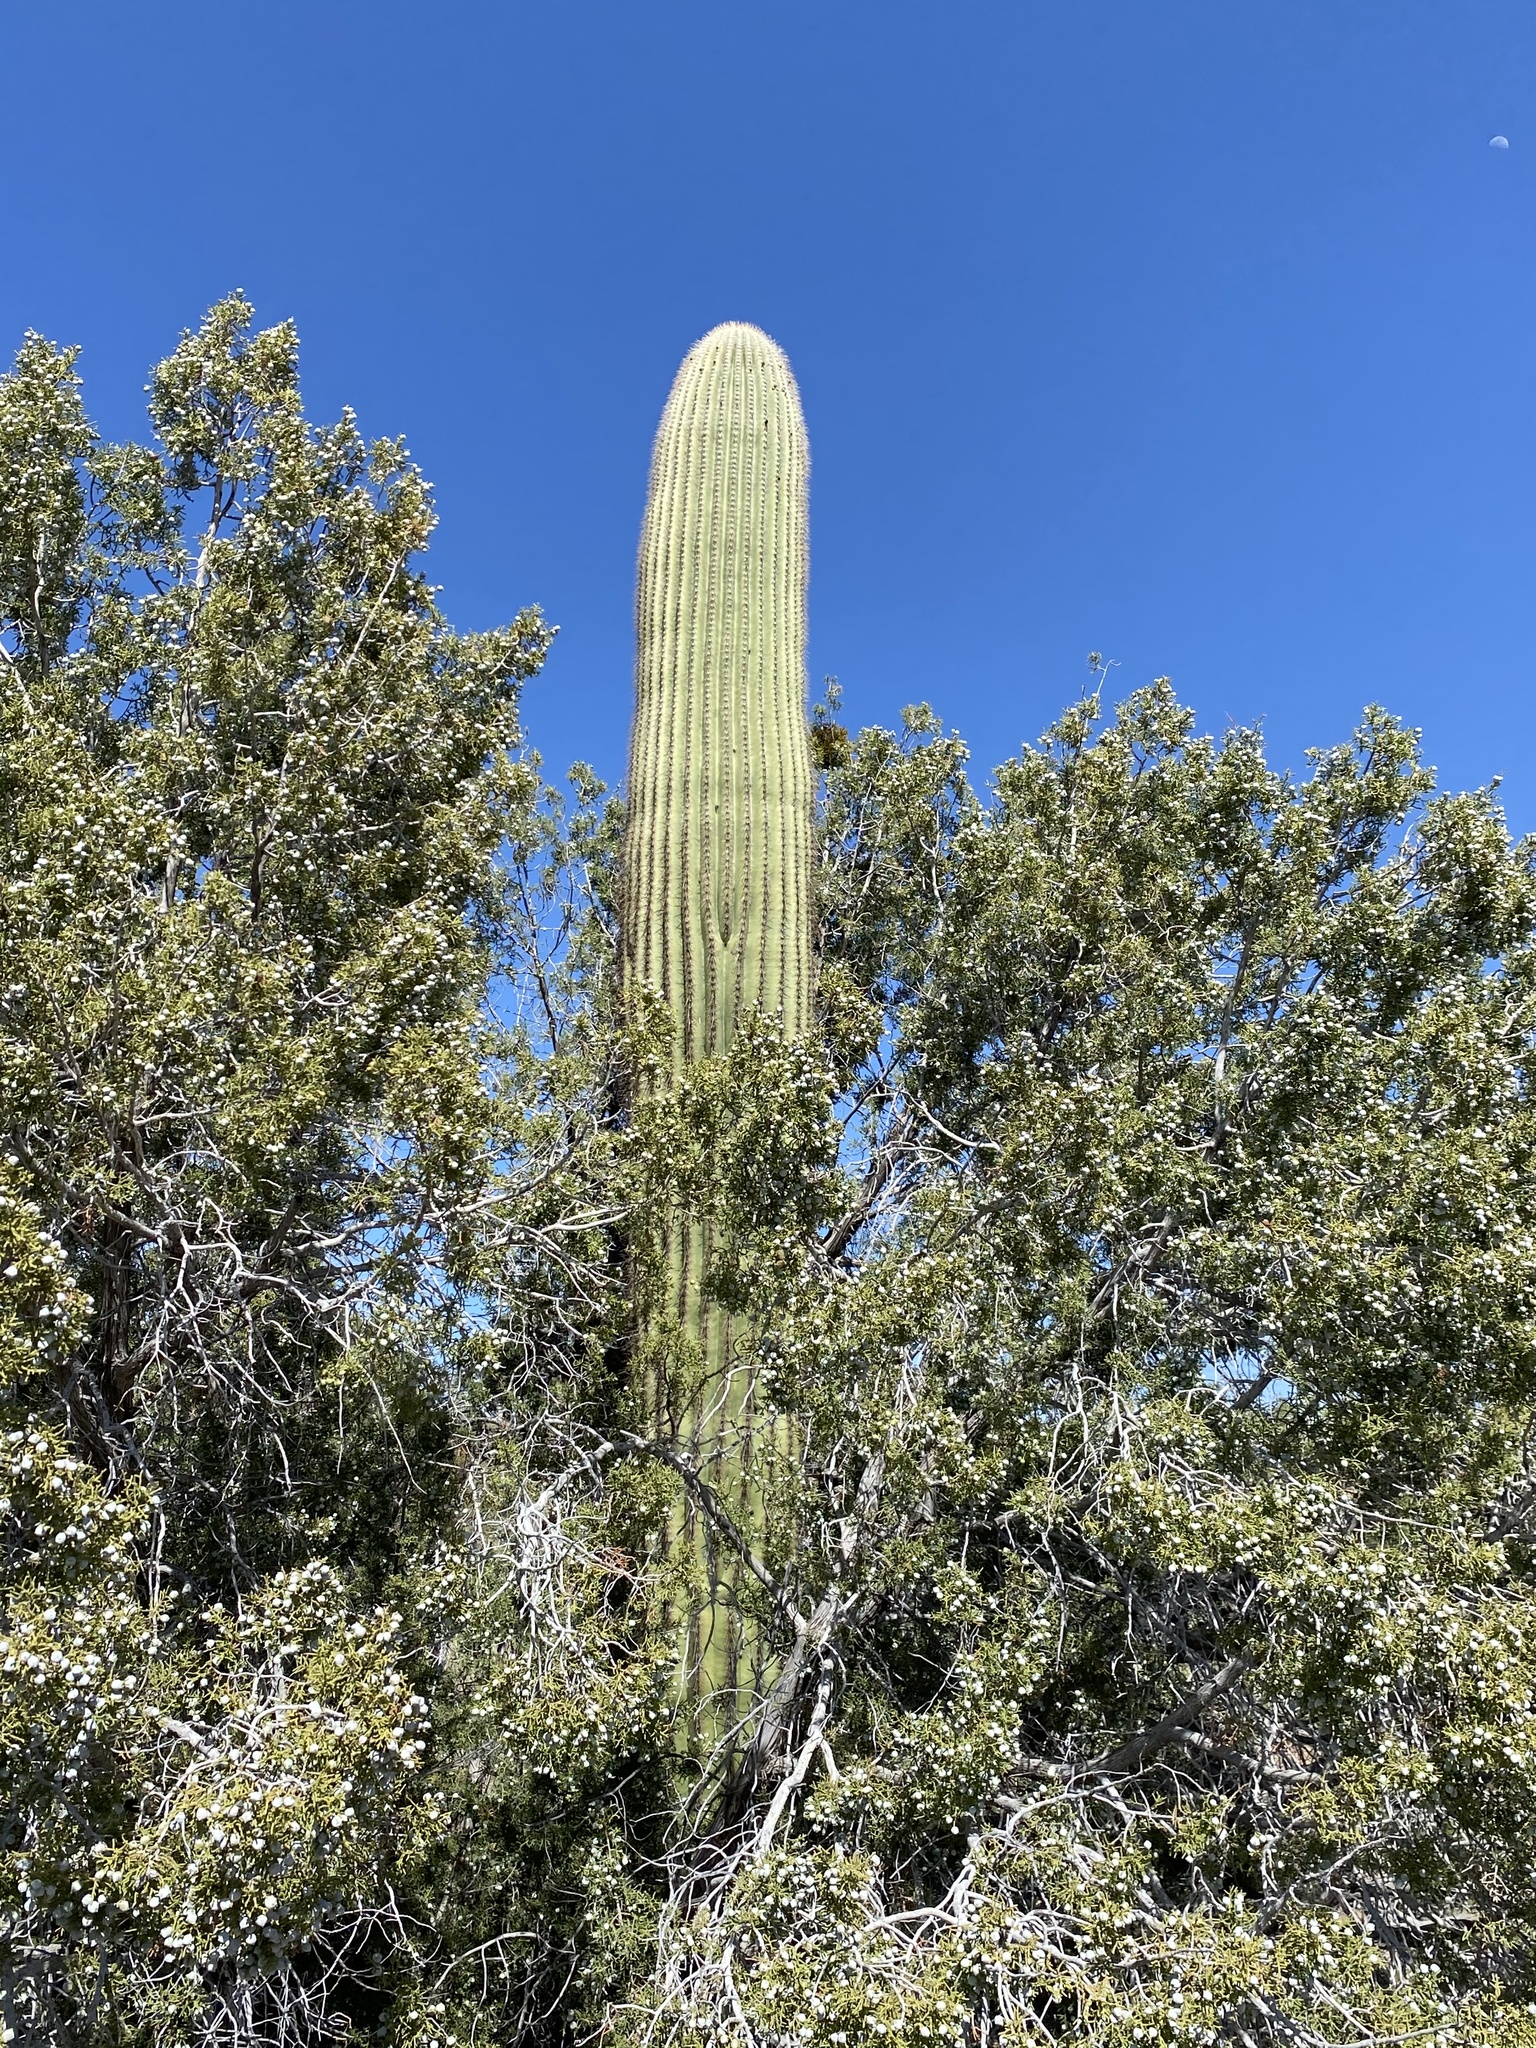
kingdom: Plantae
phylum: Tracheophyta
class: Magnoliopsida
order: Caryophyllales
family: Cactaceae
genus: Carnegiea
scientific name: Carnegiea gigantea
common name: Saguaro
